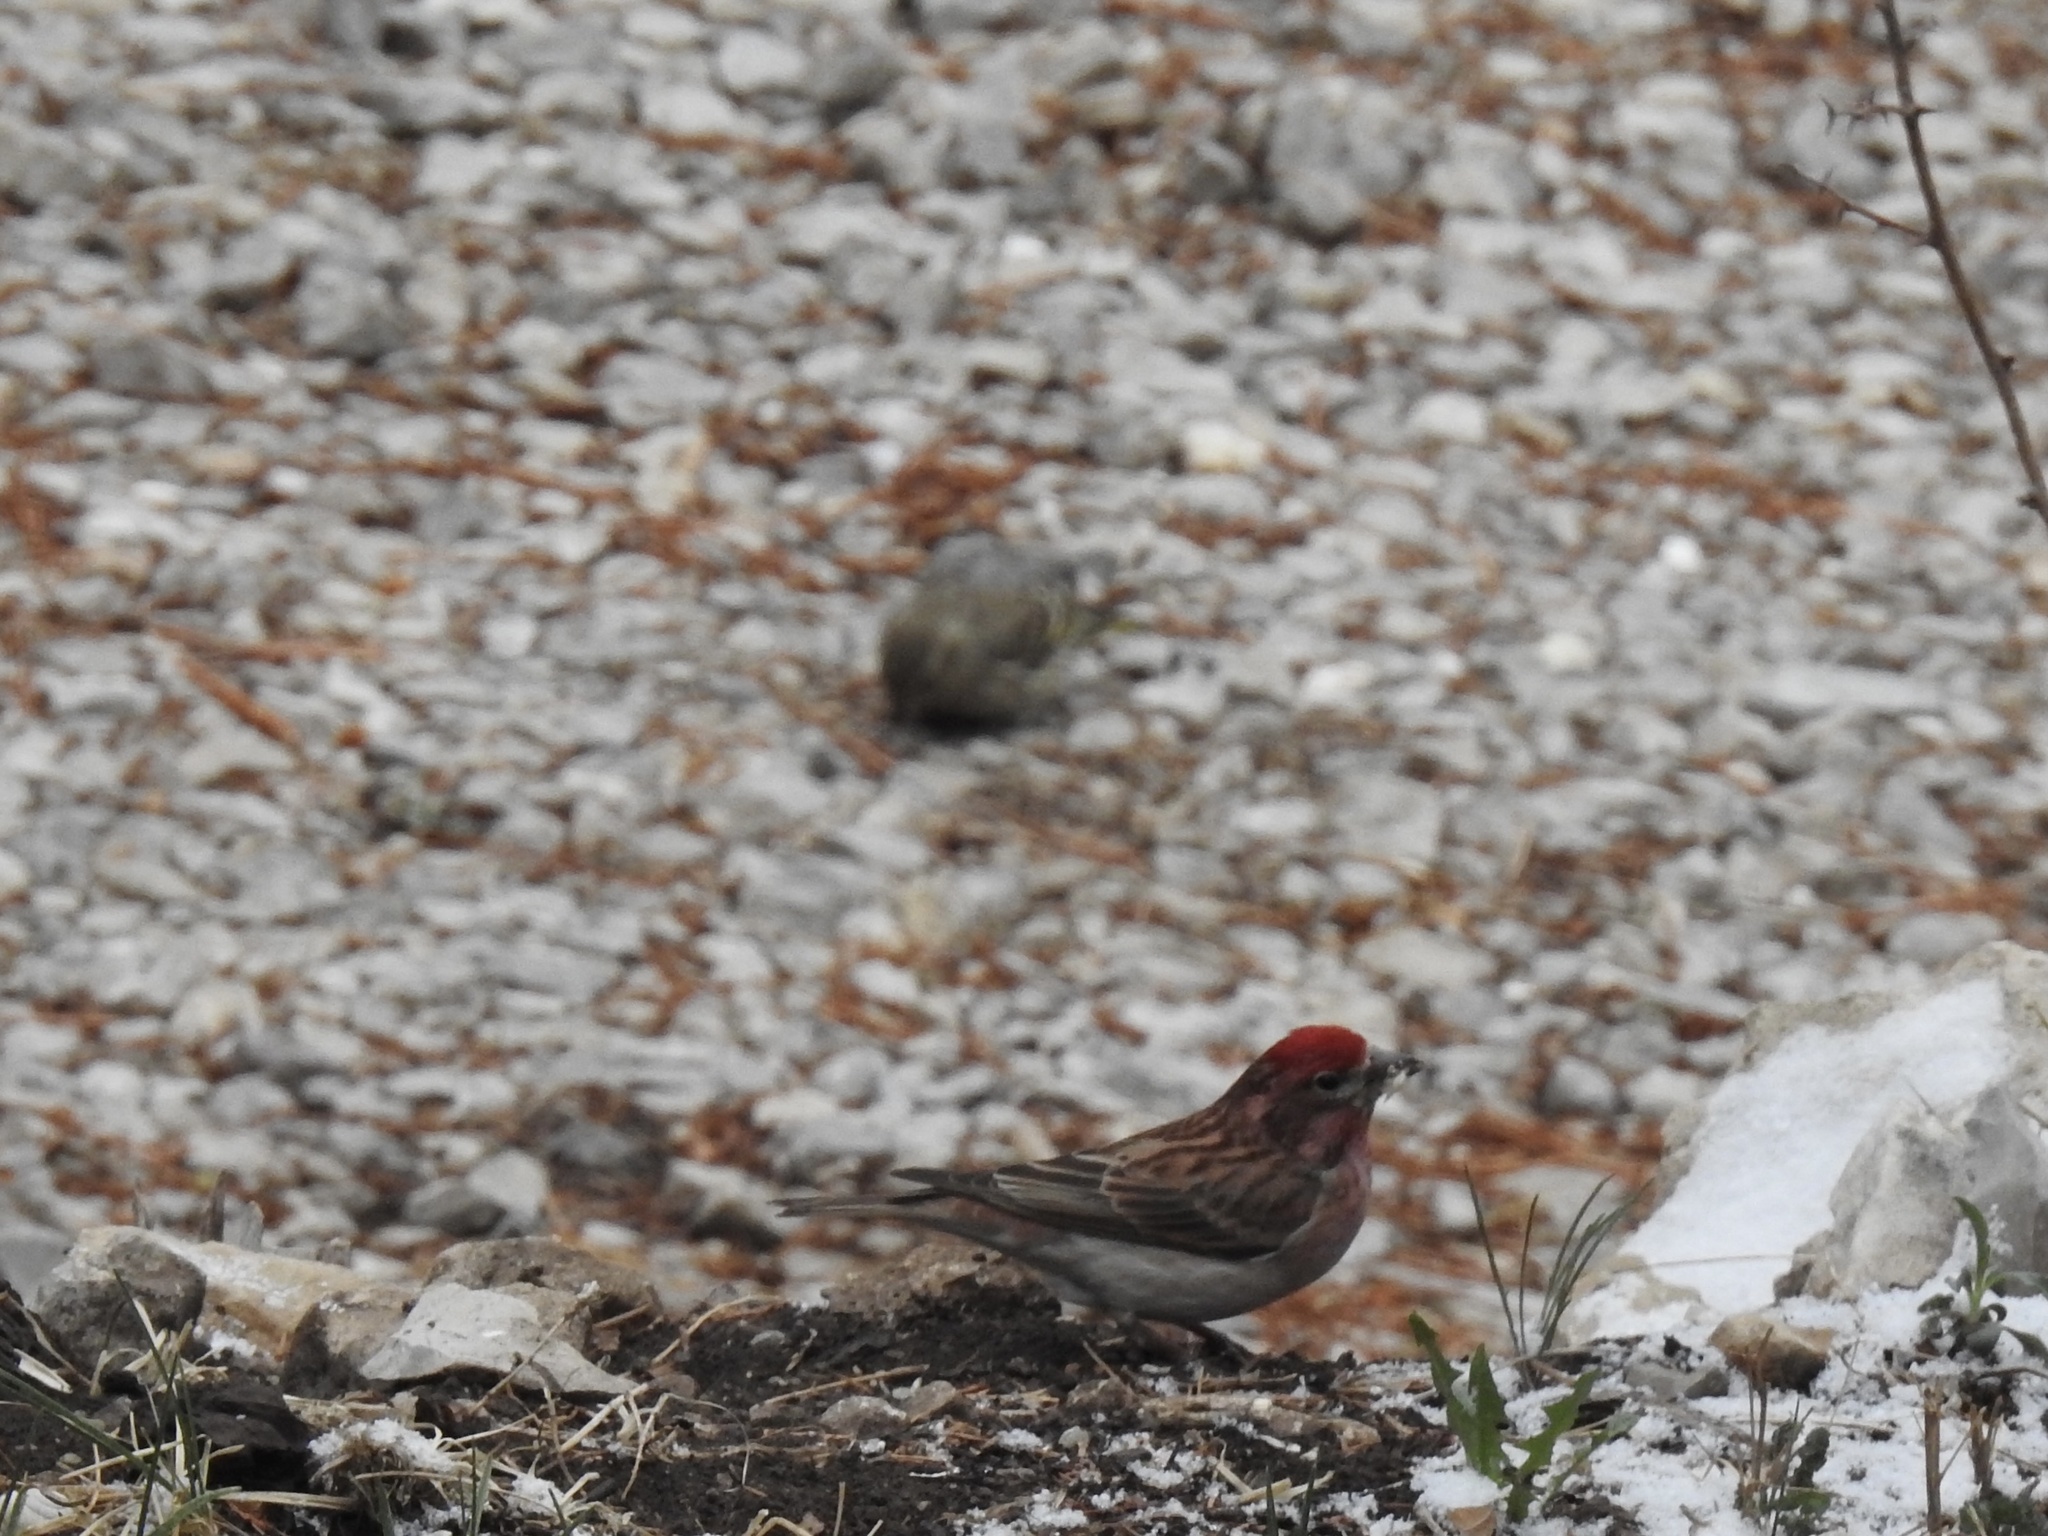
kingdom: Animalia
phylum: Chordata
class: Aves
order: Passeriformes
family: Fringillidae
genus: Spinus
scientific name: Spinus pinus
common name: Pine siskin
